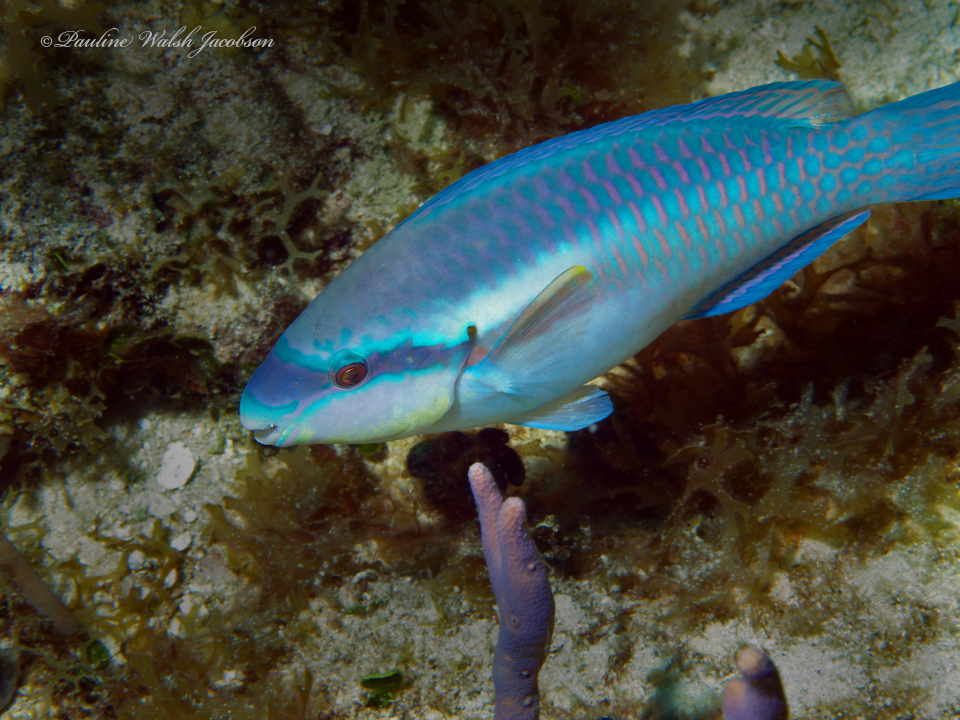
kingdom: Animalia
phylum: Chordata
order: Perciformes
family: Scaridae
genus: Scarus
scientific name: Scarus iseri
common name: Striped parrotfish
